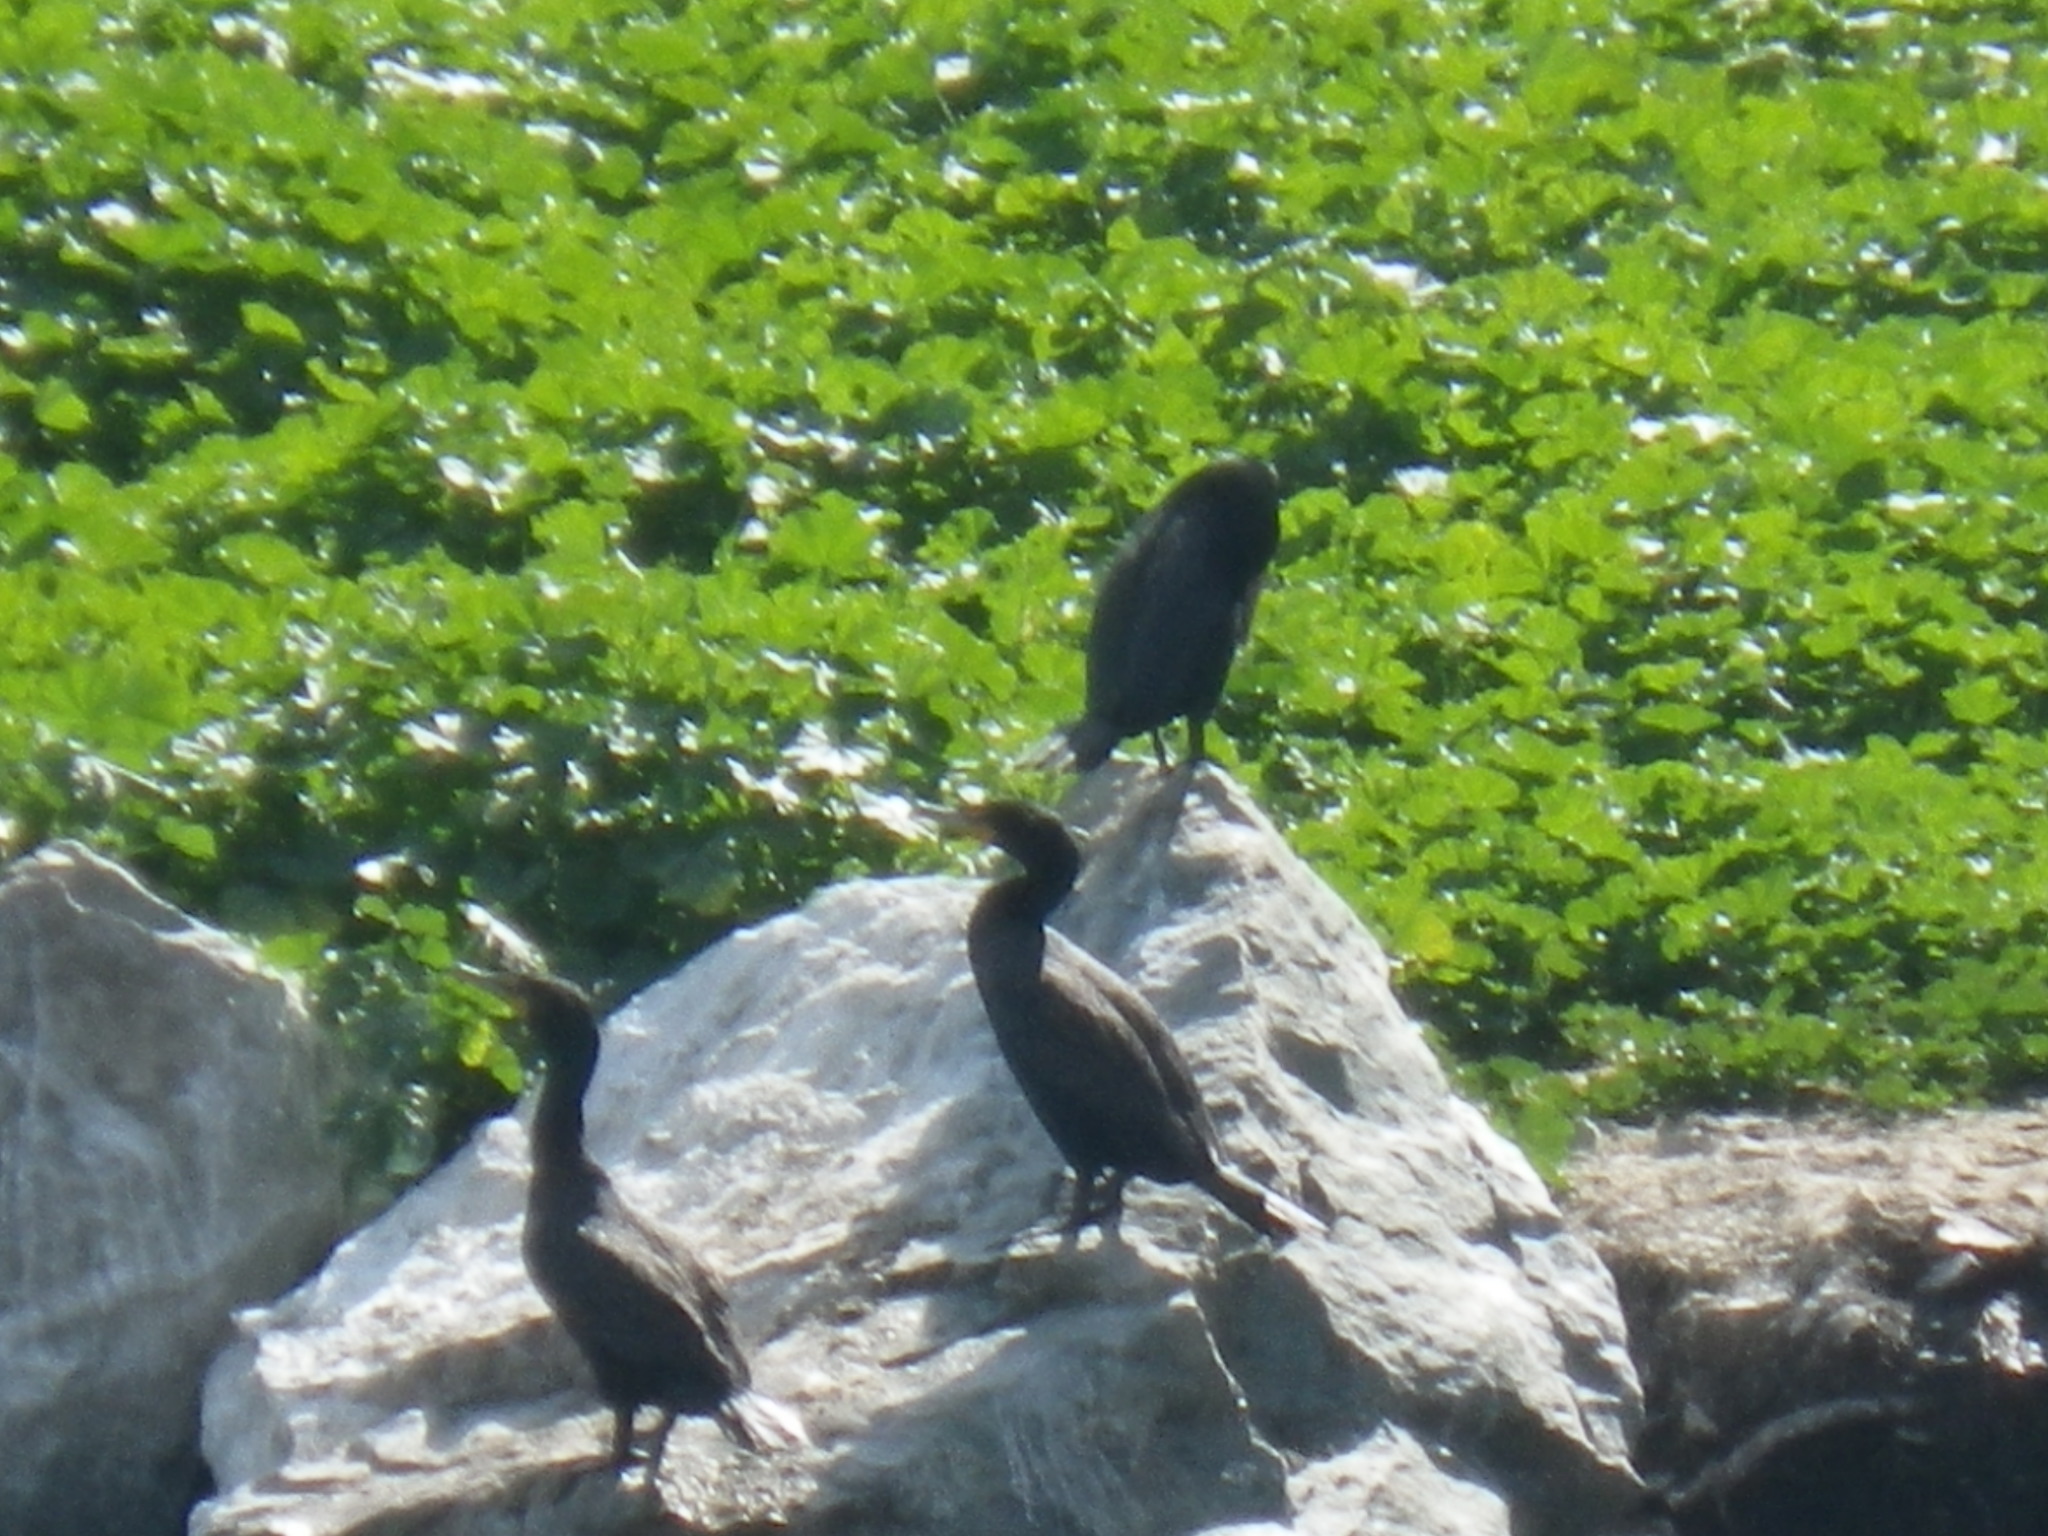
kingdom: Animalia
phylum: Chordata
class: Aves
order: Suliformes
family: Phalacrocoracidae
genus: Phalacrocorax
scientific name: Phalacrocorax auritus
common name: Double-crested cormorant
